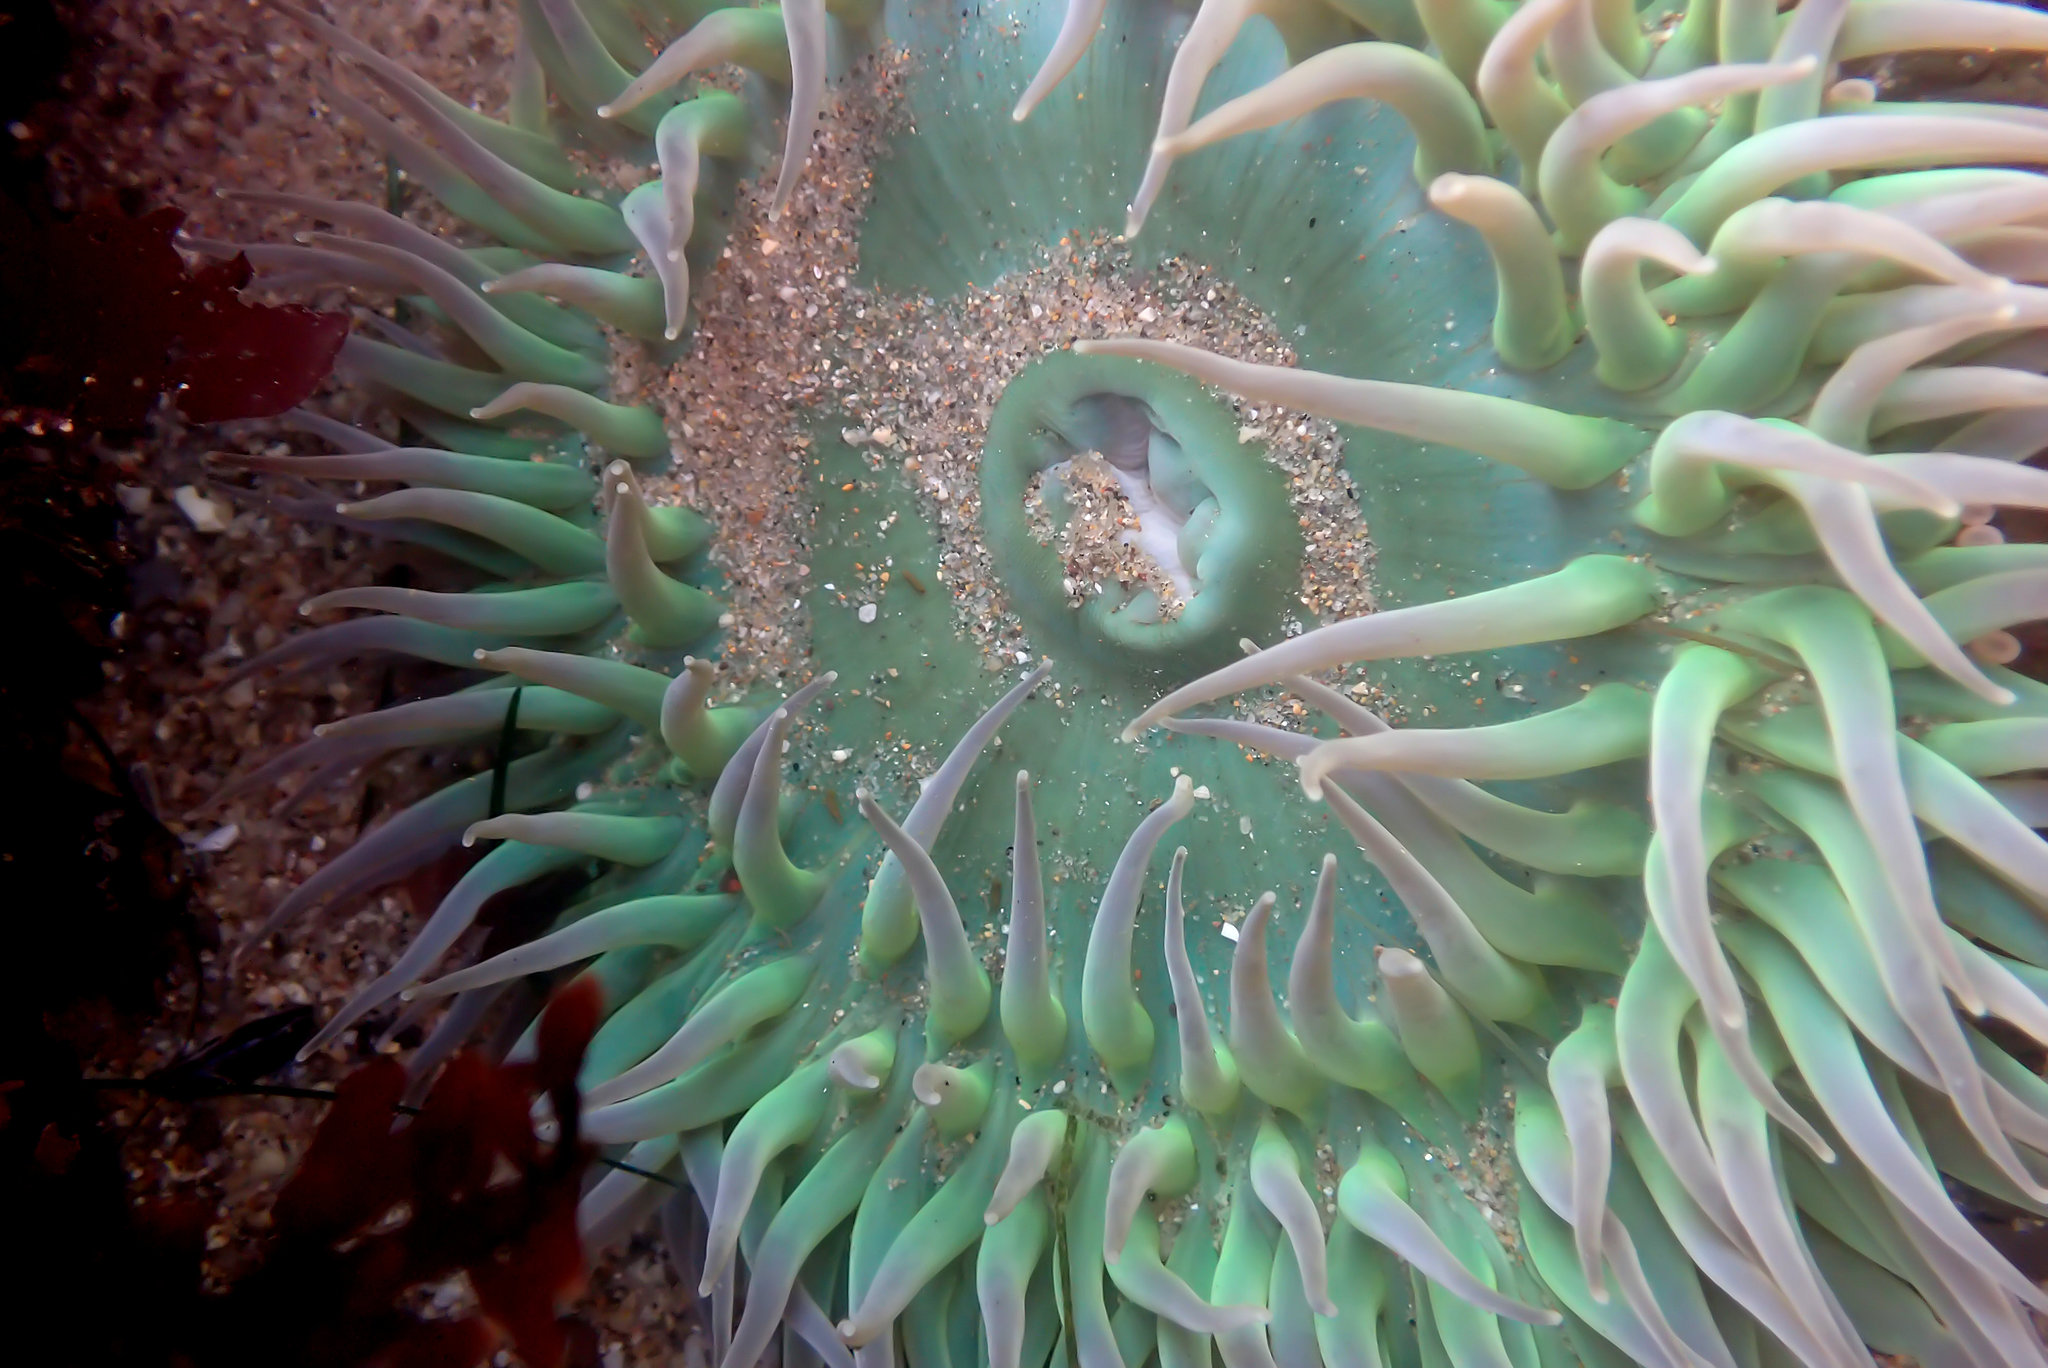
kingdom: Animalia
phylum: Cnidaria
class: Anthozoa
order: Actiniaria
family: Actiniidae
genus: Anthopleura
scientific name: Anthopleura xanthogrammica
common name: Giant green anemone
